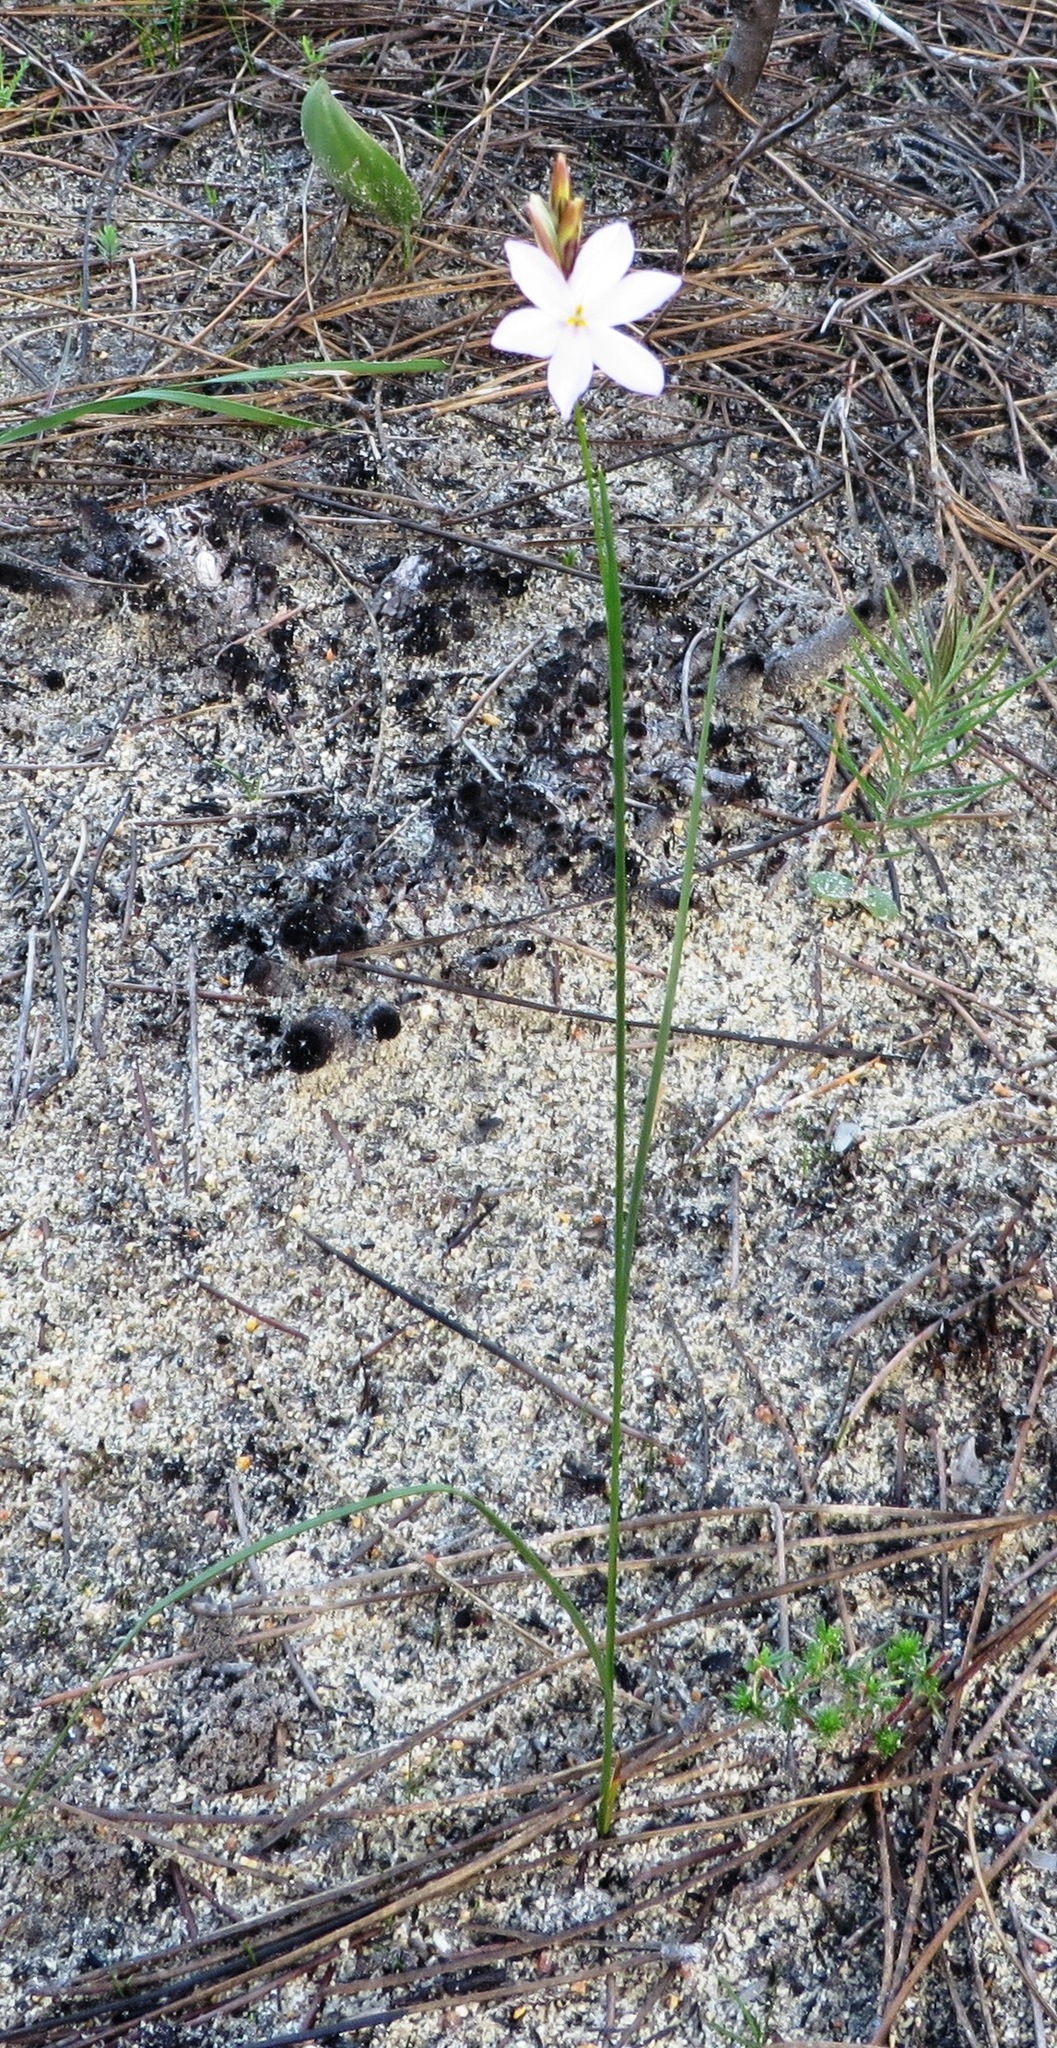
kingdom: Plantae
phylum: Tracheophyta
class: Liliopsida
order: Asparagales
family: Iridaceae
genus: Ixia
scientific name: Ixia micrandra
